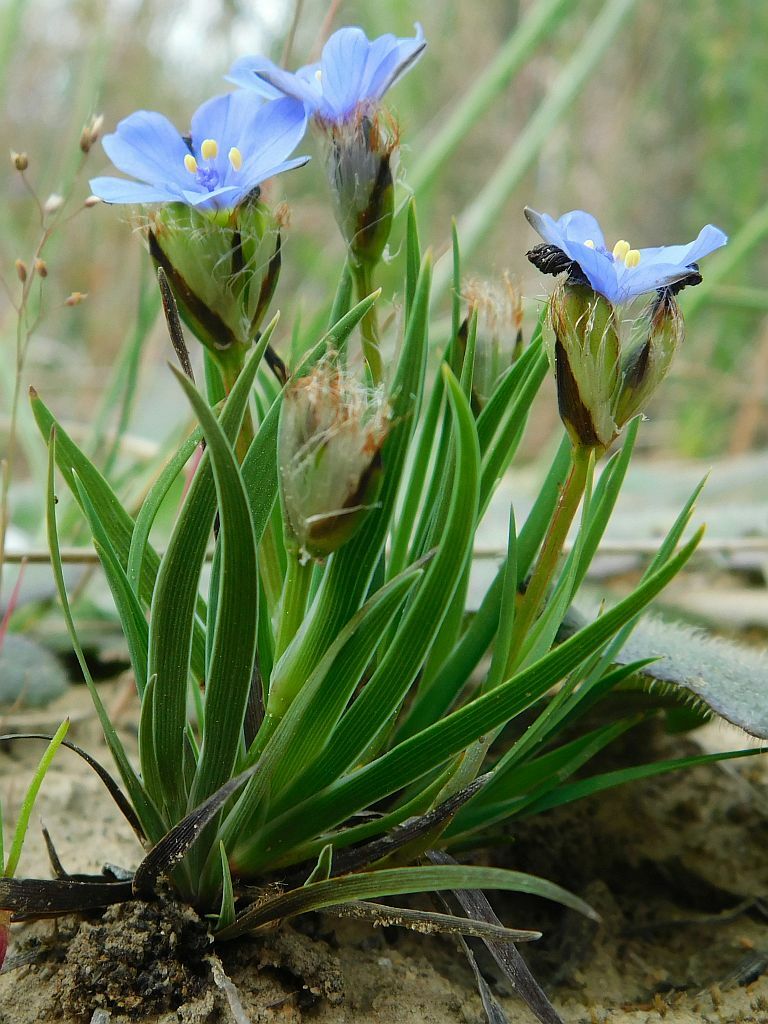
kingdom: Plantae
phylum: Tracheophyta
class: Liliopsida
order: Asparagales
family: Iridaceae
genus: Aristea
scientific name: Aristea africana
